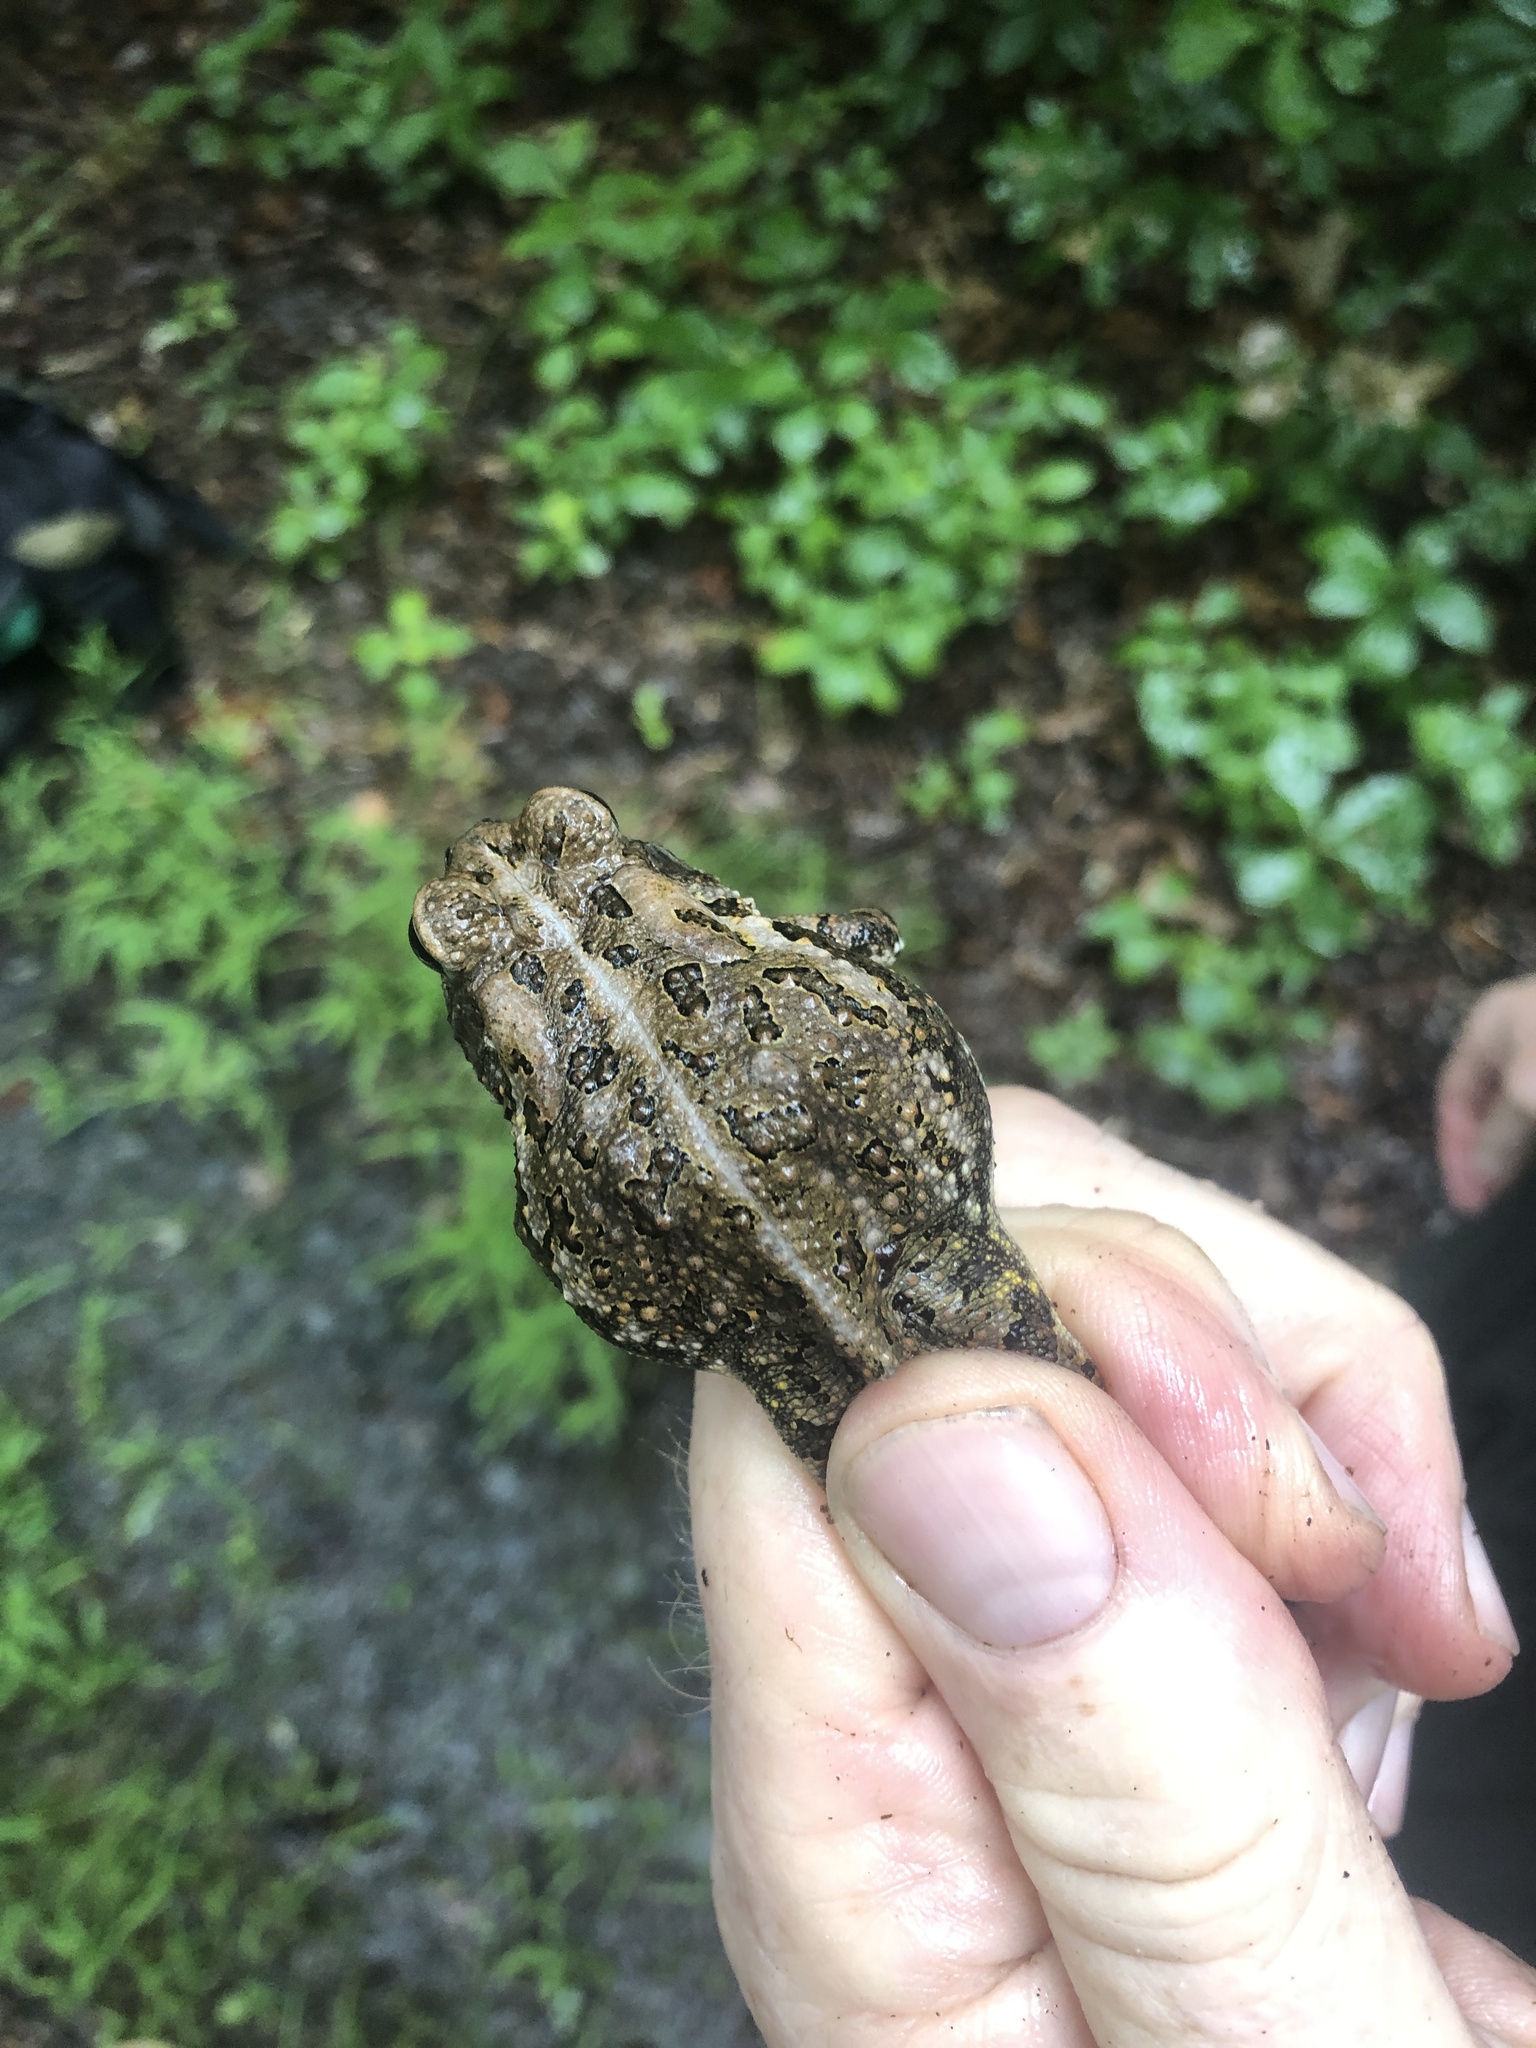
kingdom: Animalia
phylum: Chordata
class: Amphibia
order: Anura
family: Bufonidae
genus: Anaxyrus
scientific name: Anaxyrus fowleri
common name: Fowler's toad
